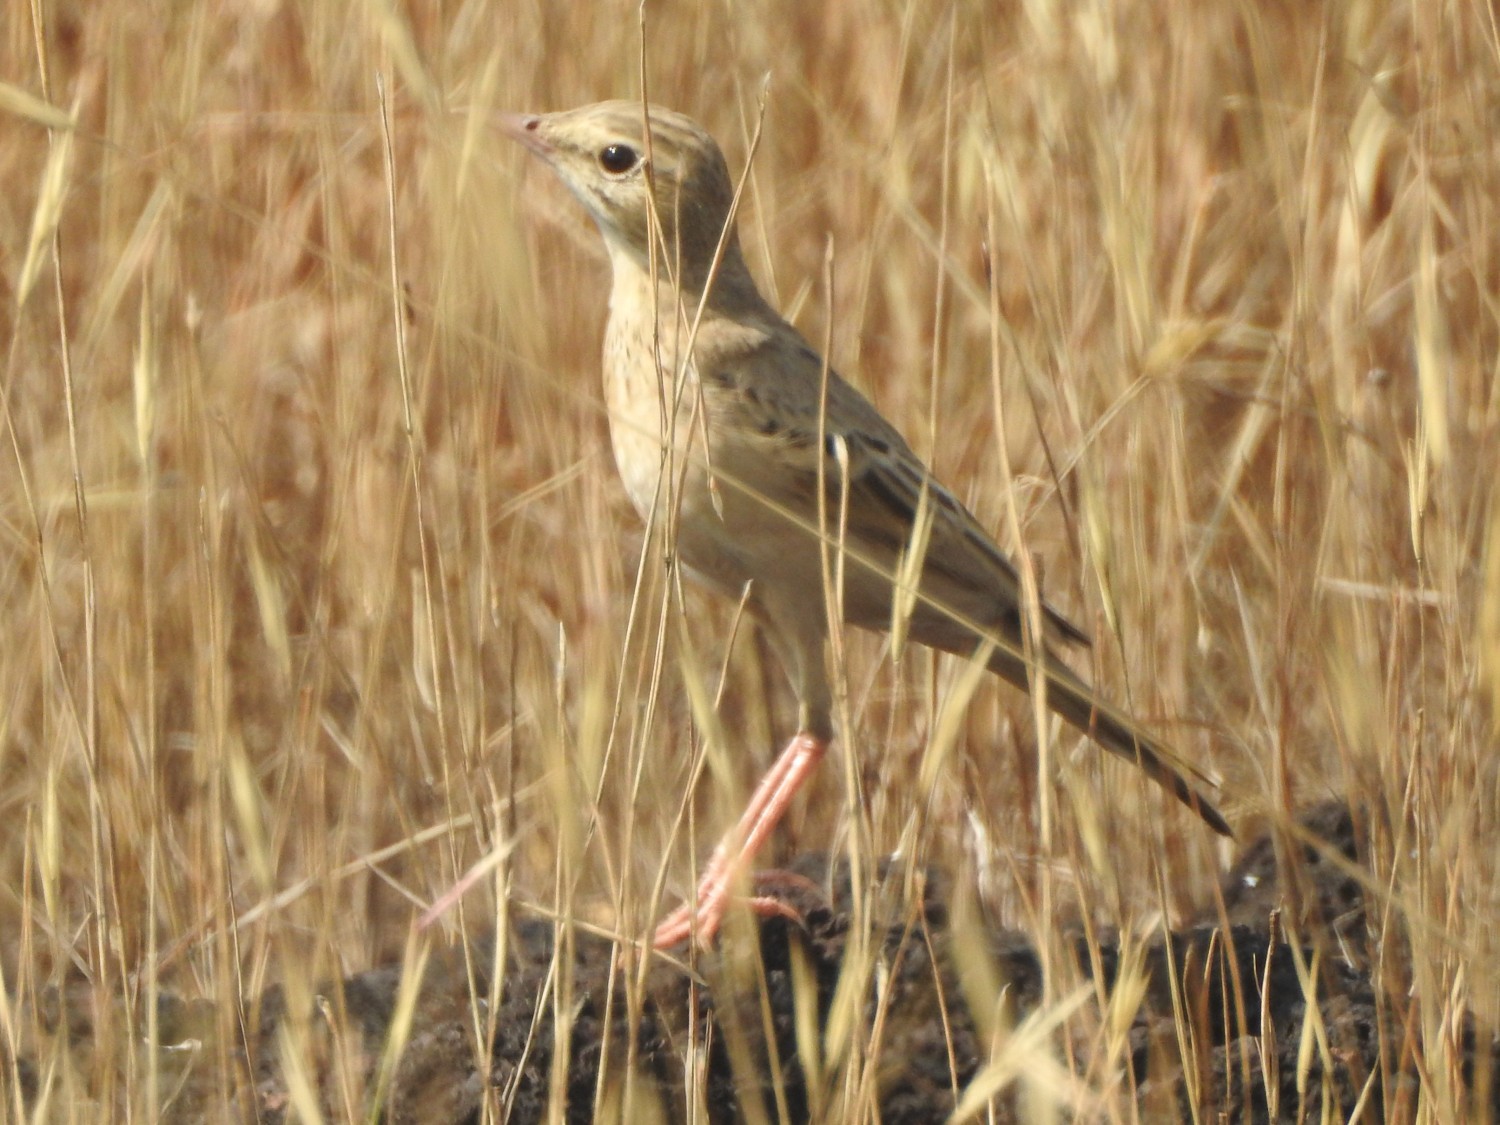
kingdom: Animalia
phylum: Chordata
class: Aves
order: Passeriformes
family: Motacillidae
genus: Anthus
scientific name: Anthus campestris
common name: Tawny pipit
